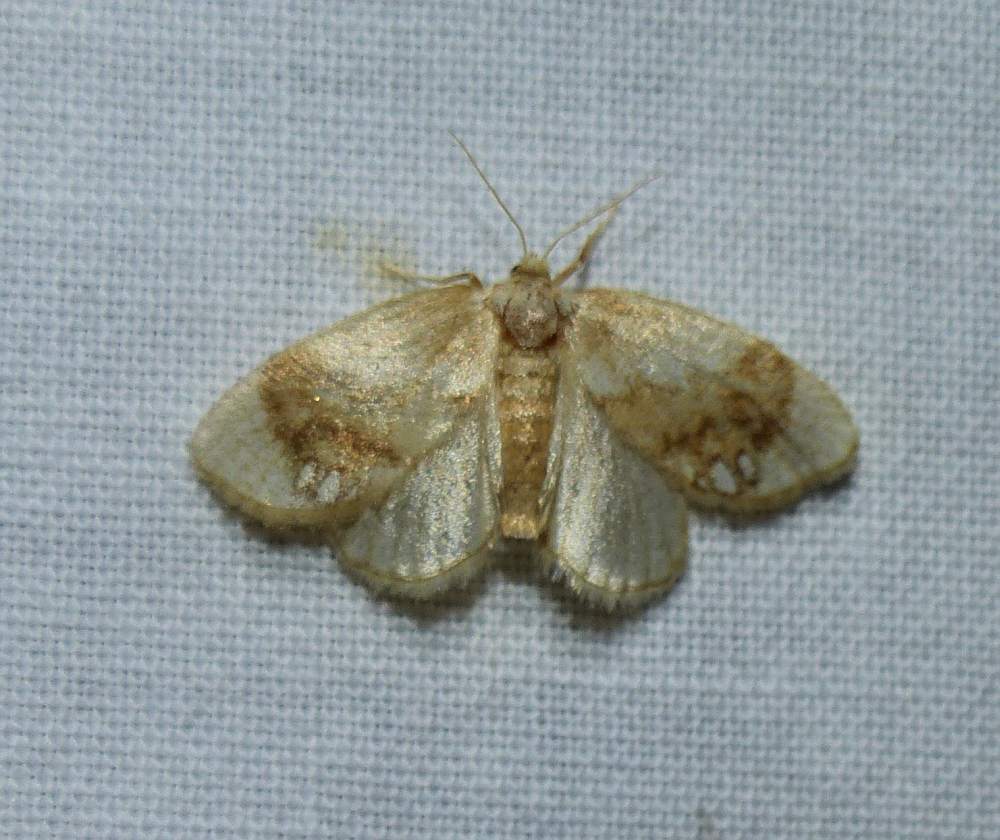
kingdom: Animalia
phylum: Arthropoda
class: Insecta
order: Lepidoptera
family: Limacodidae
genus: Packardia
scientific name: Packardia geminata
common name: Jeweled tailed slug moth
